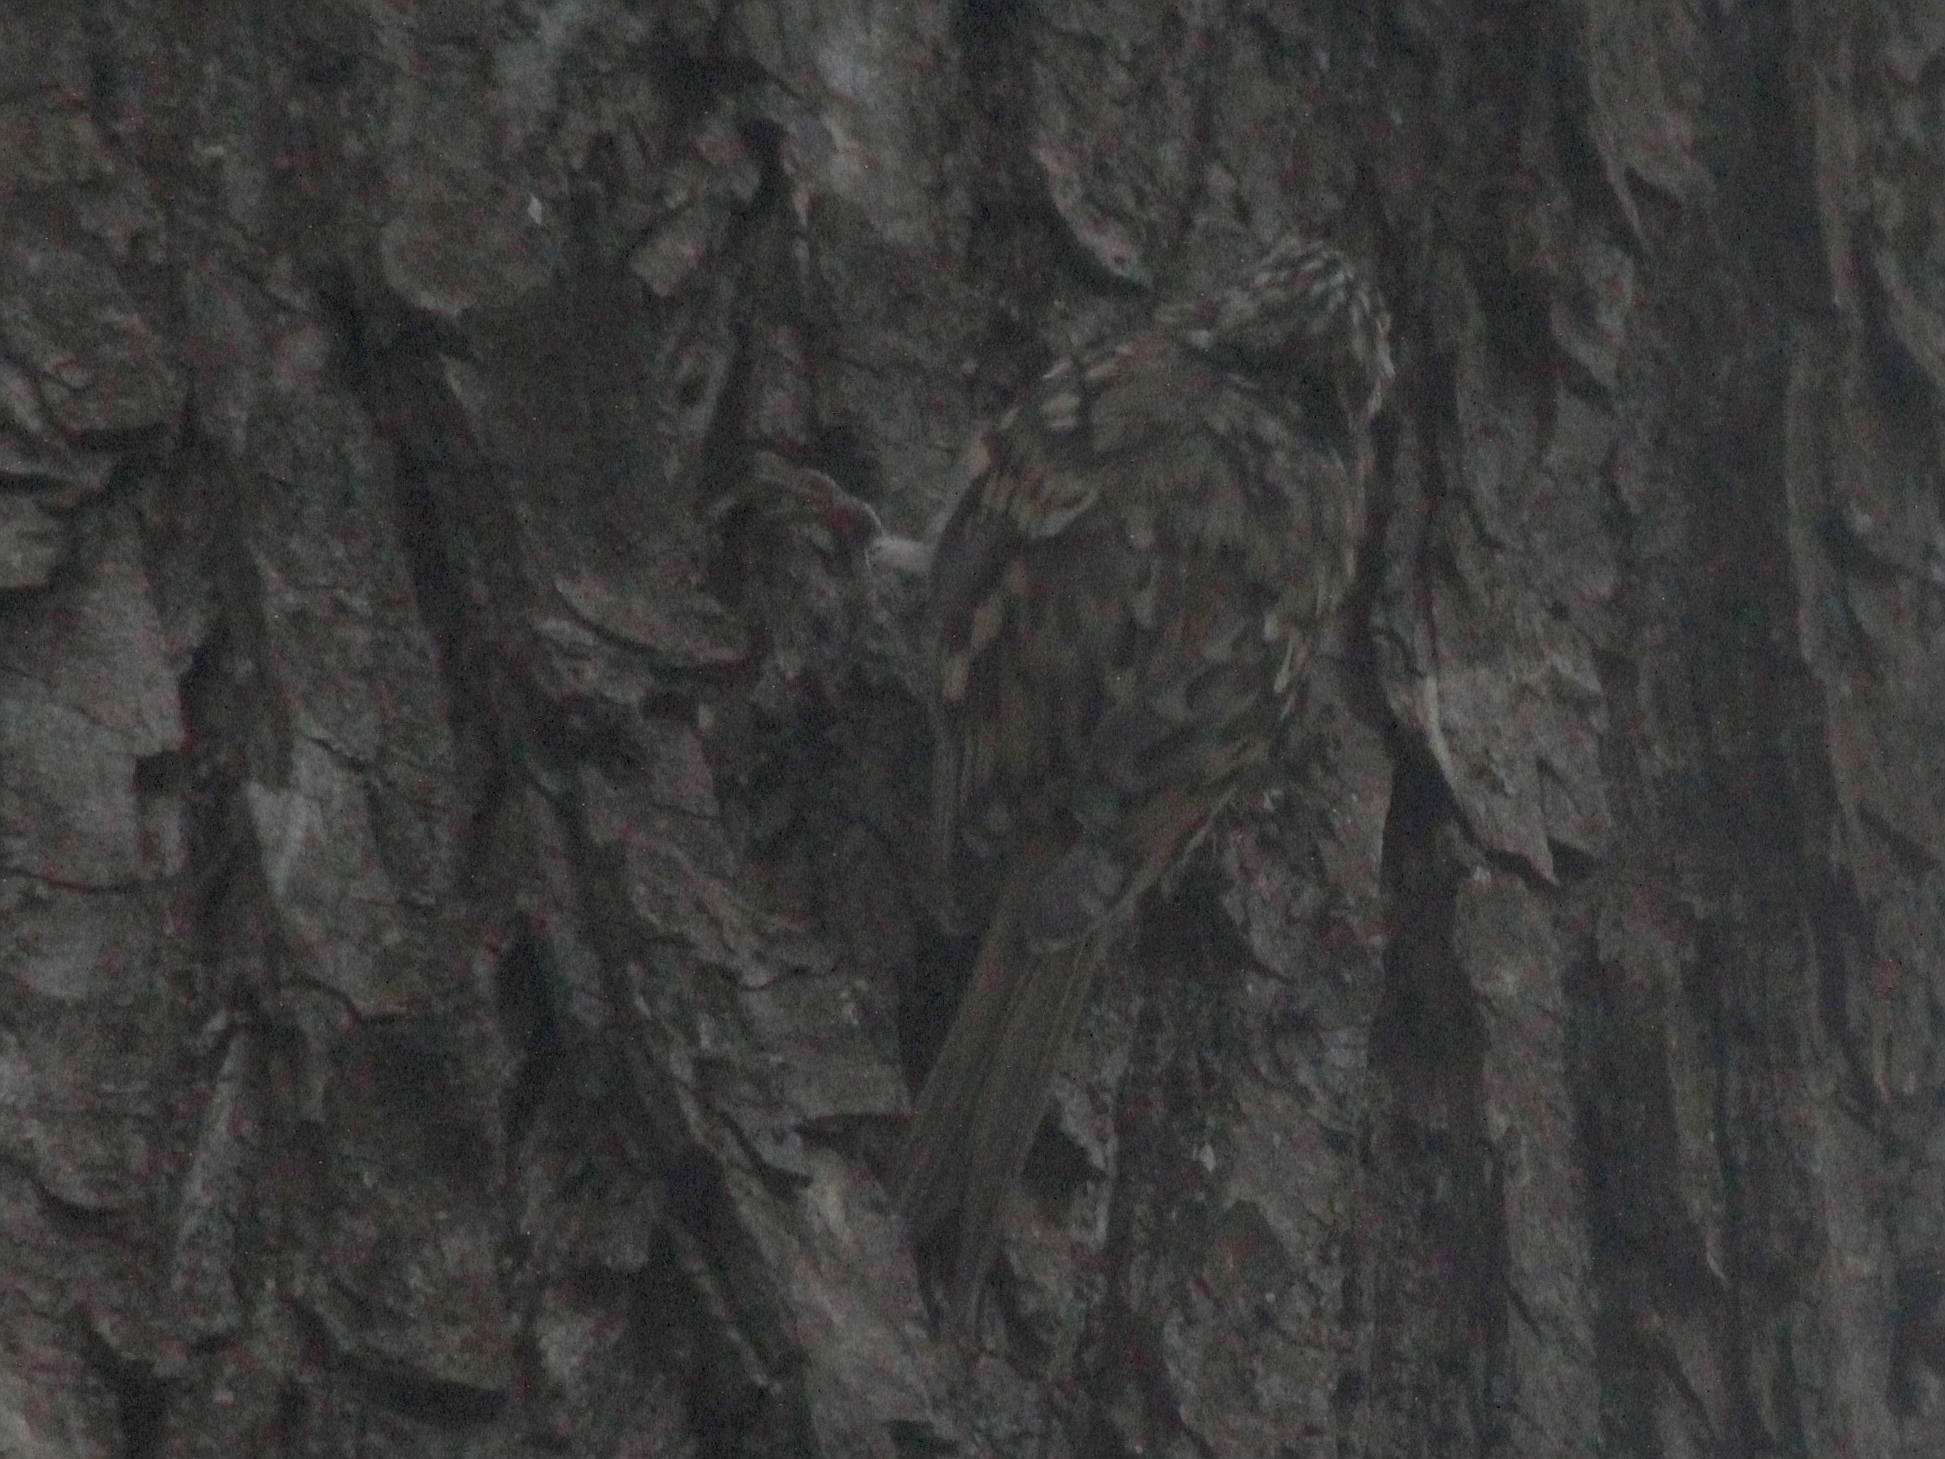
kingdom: Animalia
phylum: Chordata
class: Aves
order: Passeriformes
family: Certhiidae
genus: Certhia
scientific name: Certhia familiaris
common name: Eurasian treecreeper
